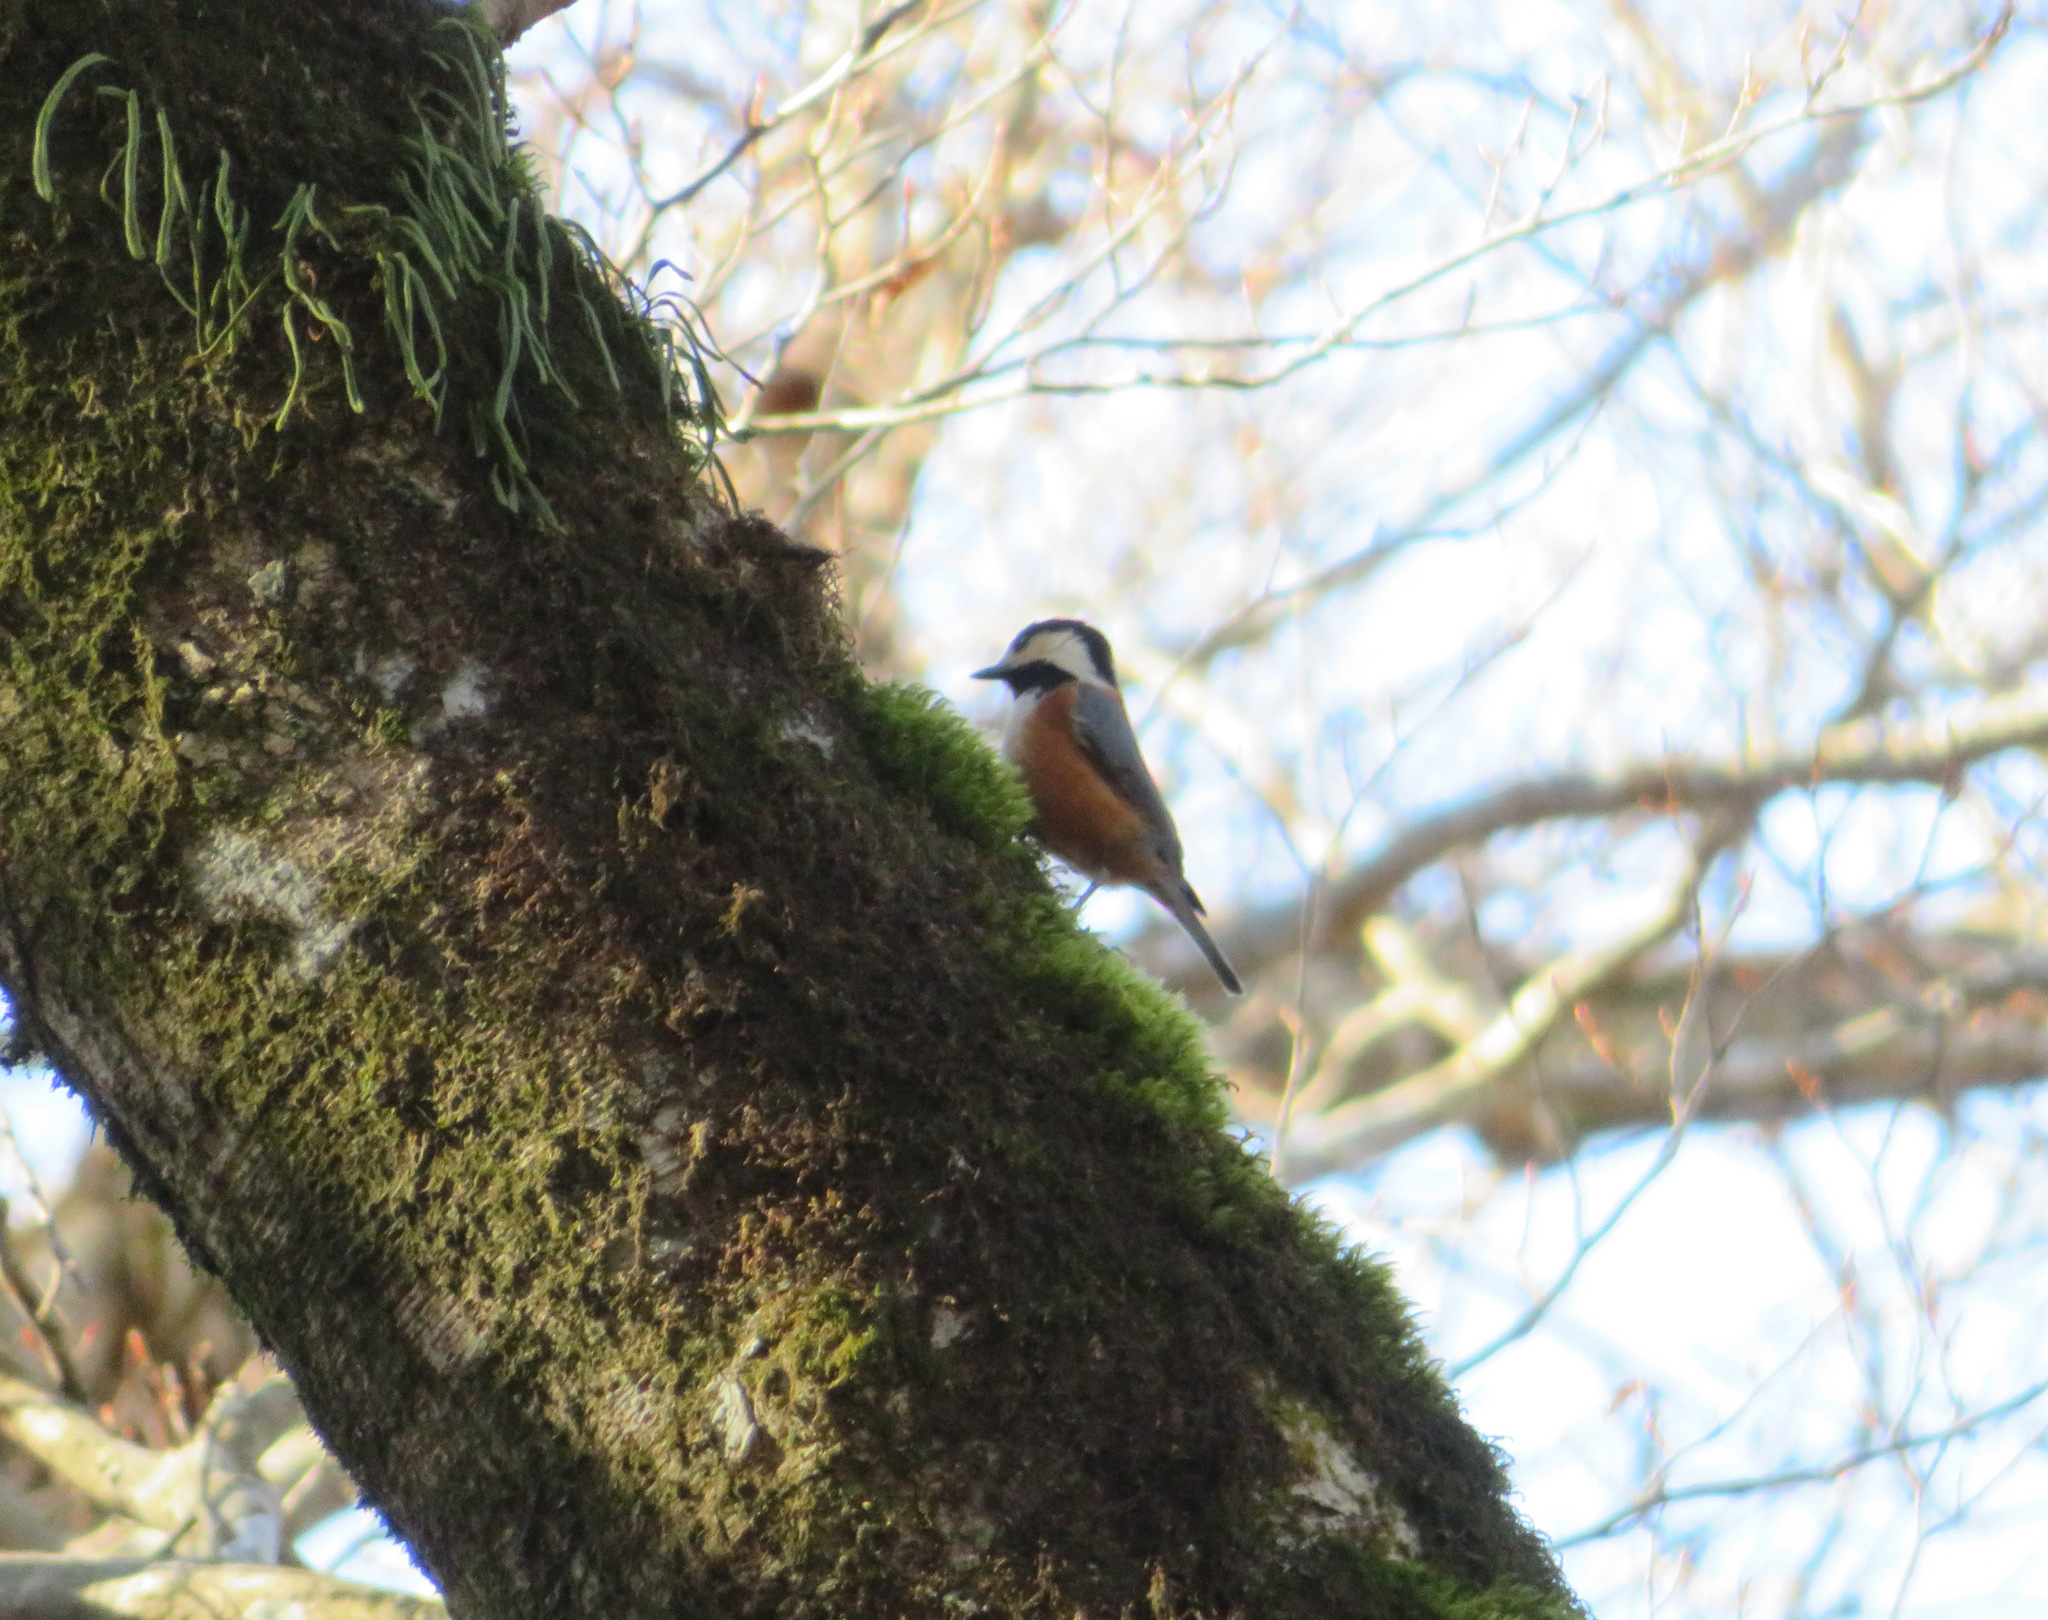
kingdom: Animalia
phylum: Chordata
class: Aves
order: Passeriformes
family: Paridae
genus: Poecile
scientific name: Poecile varius
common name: Varied tit
